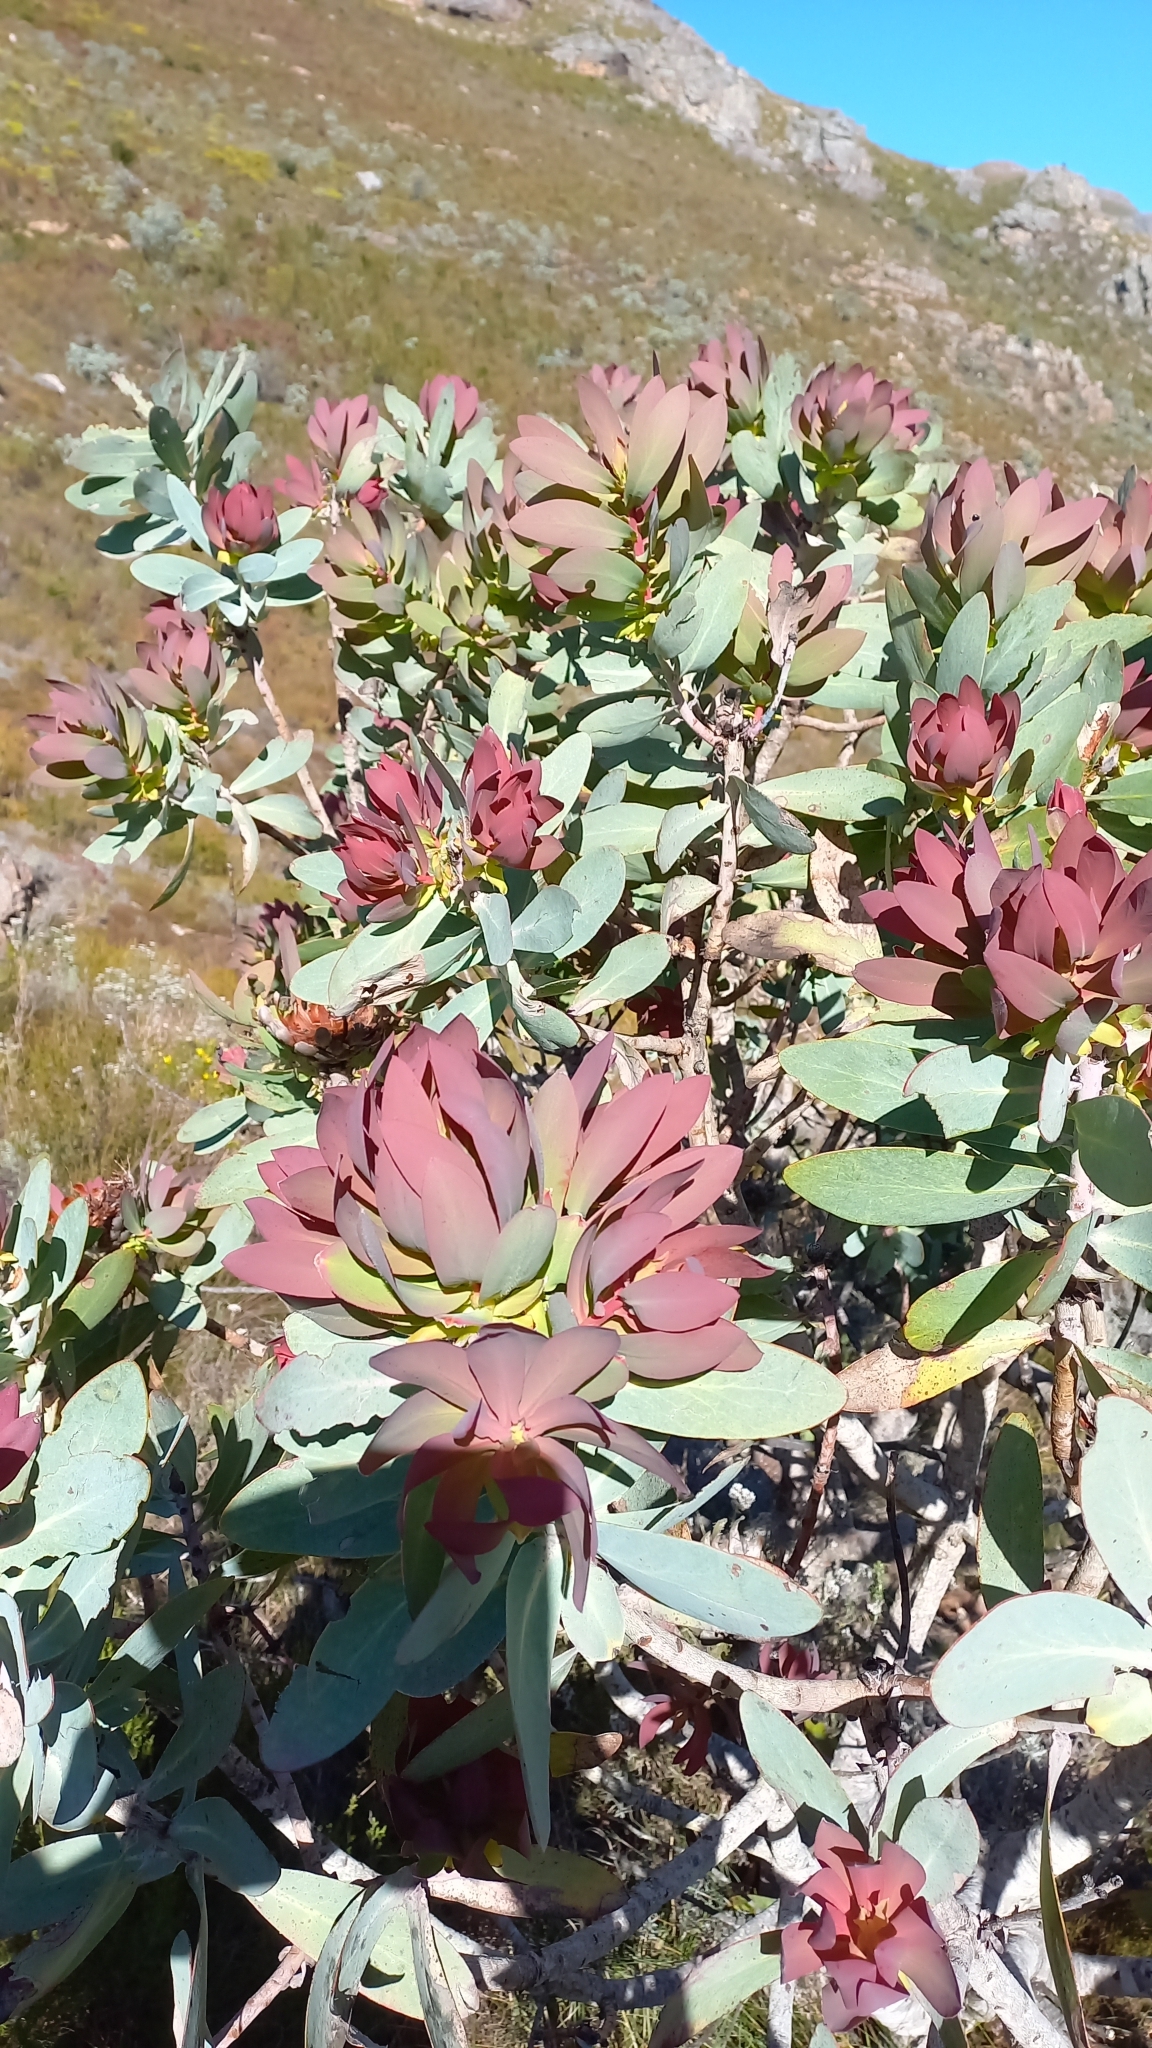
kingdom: Plantae
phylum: Tracheophyta
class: Magnoliopsida
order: Proteales
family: Proteaceae
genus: Protea
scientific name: Protea nitida
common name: Tree protea
